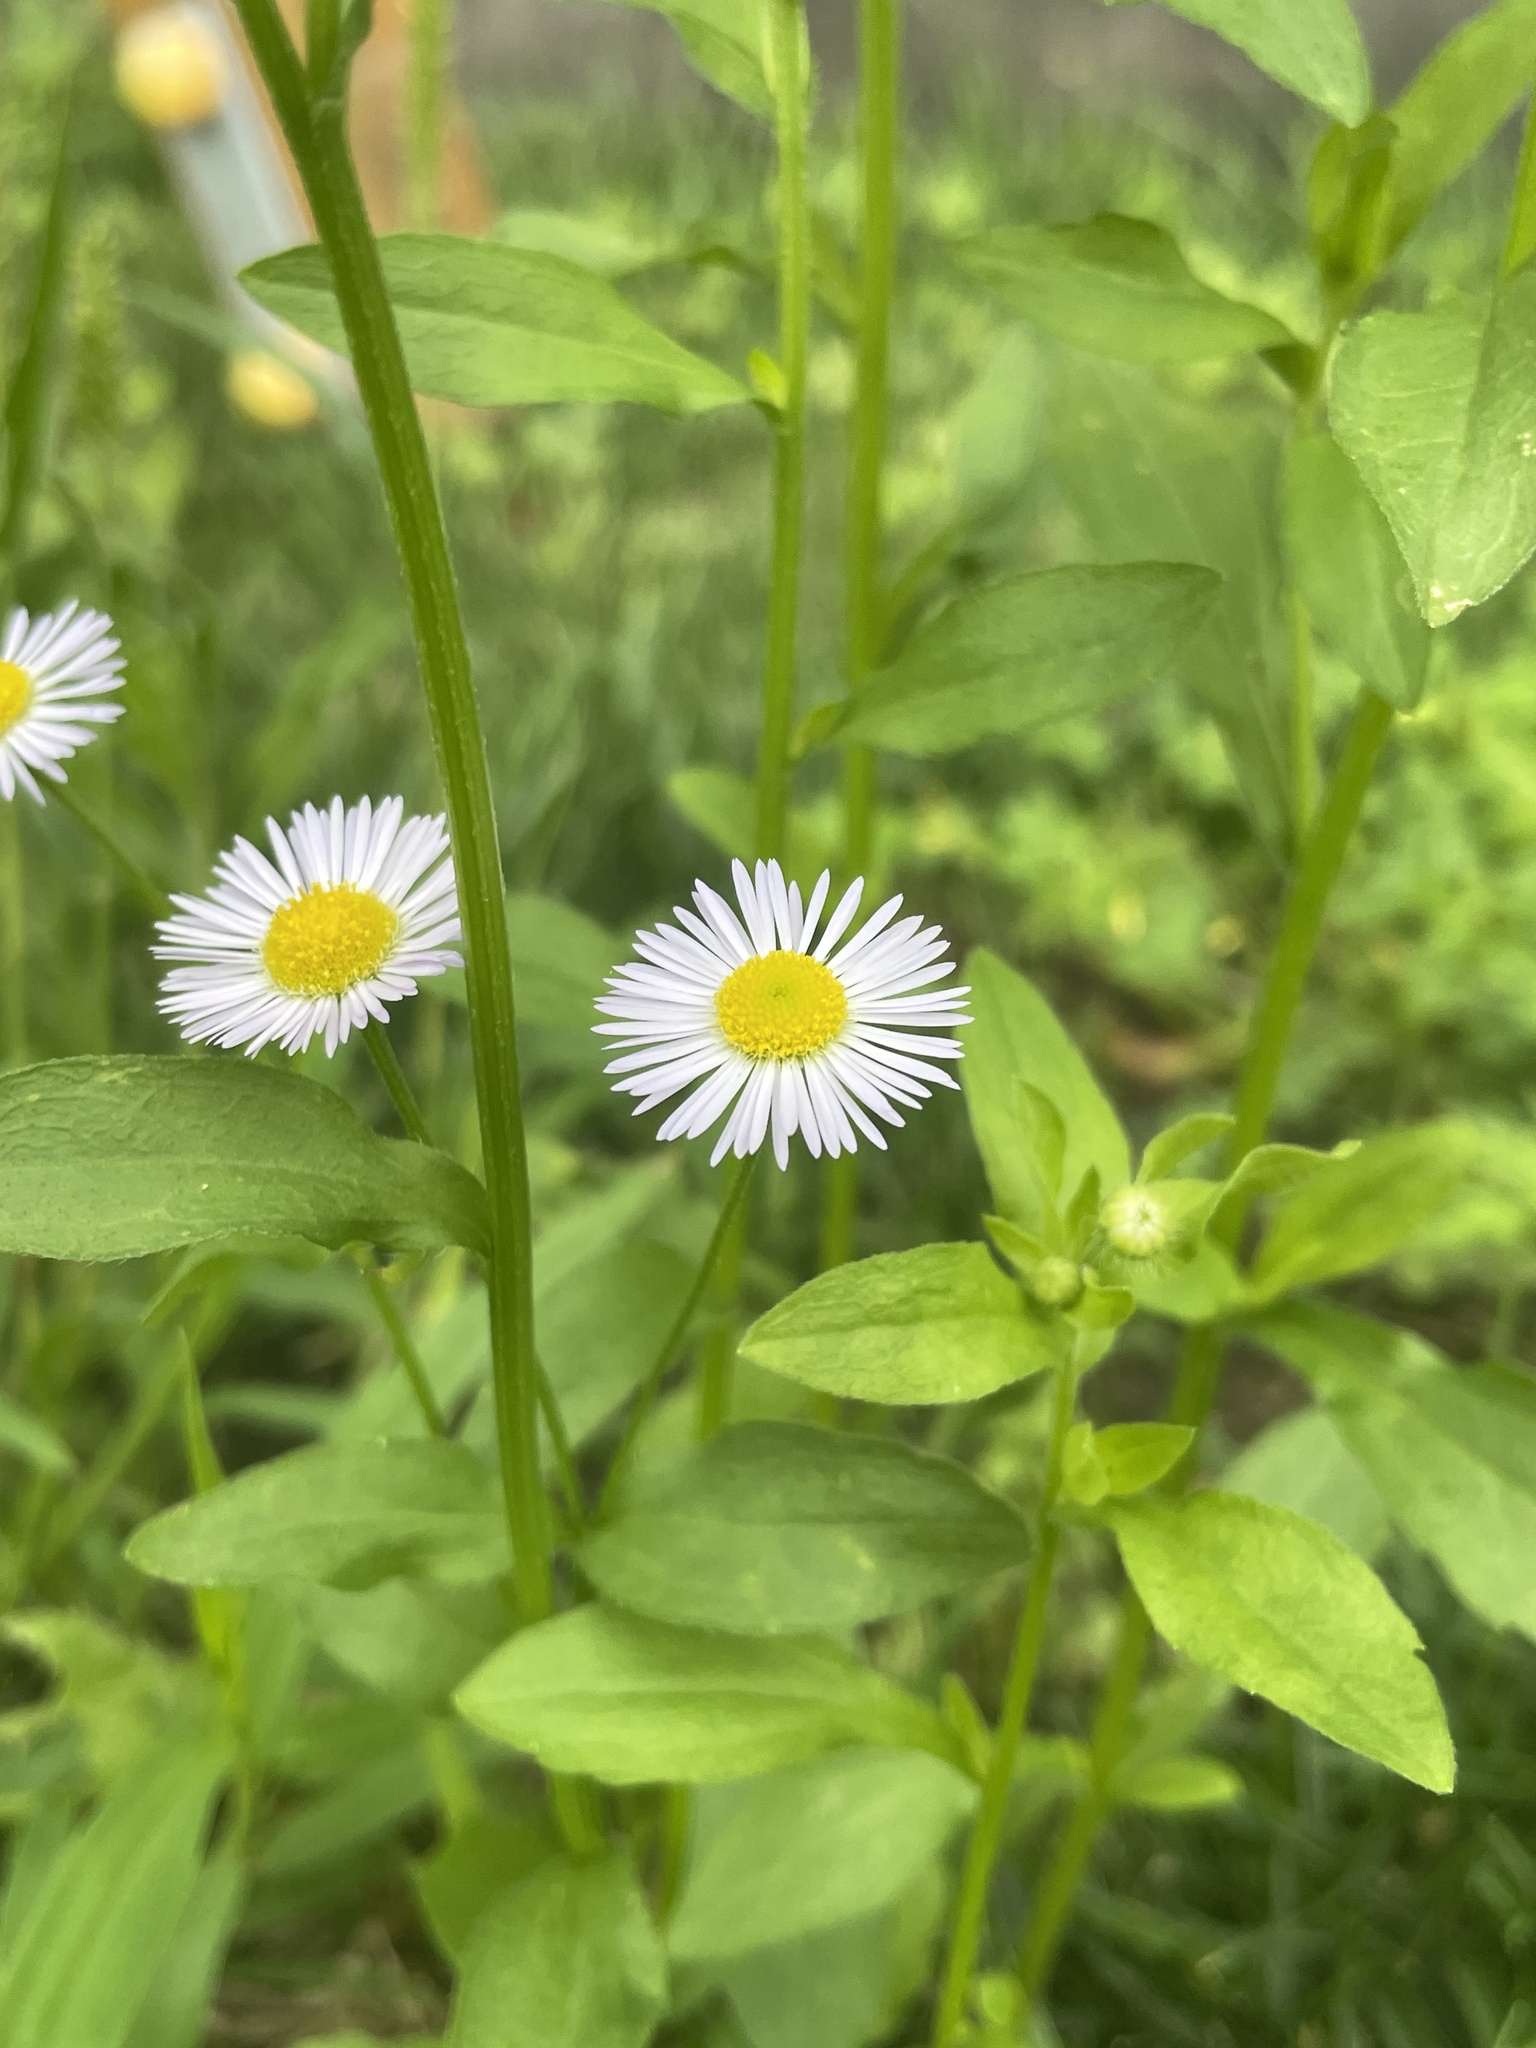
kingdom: Plantae
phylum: Tracheophyta
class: Magnoliopsida
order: Asterales
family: Asteraceae
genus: Erigeron
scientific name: Erigeron annuus
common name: Tall fleabane
